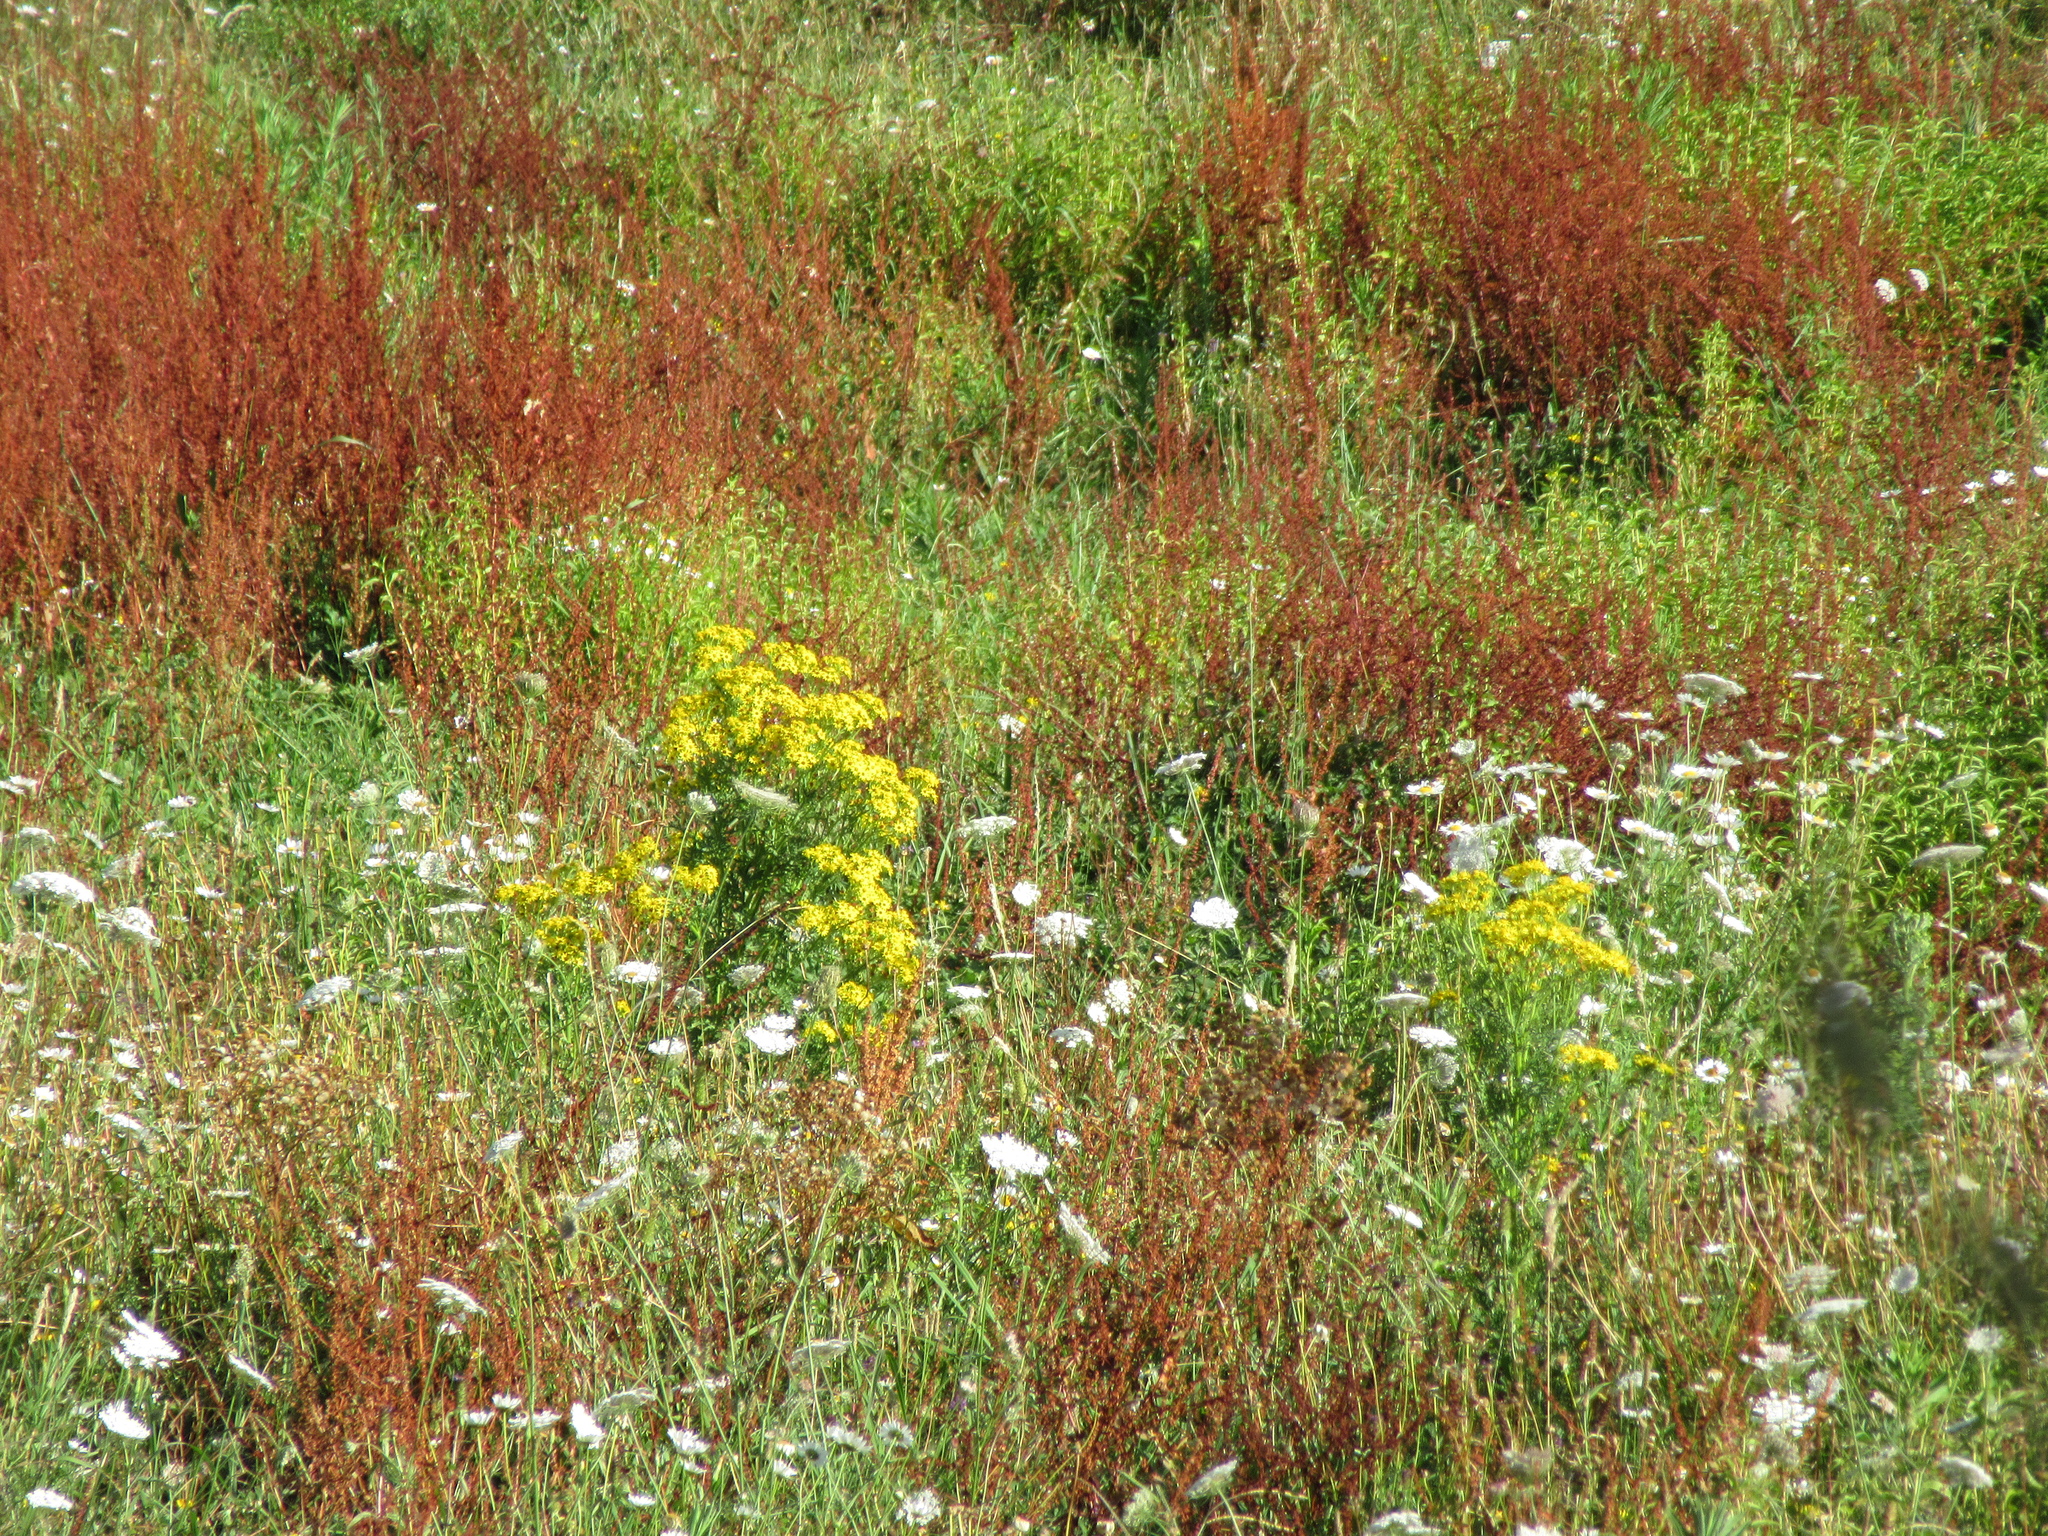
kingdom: Plantae
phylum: Tracheophyta
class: Magnoliopsida
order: Asterales
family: Asteraceae
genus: Jacobaea
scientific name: Jacobaea vulgaris
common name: Stinking willie
